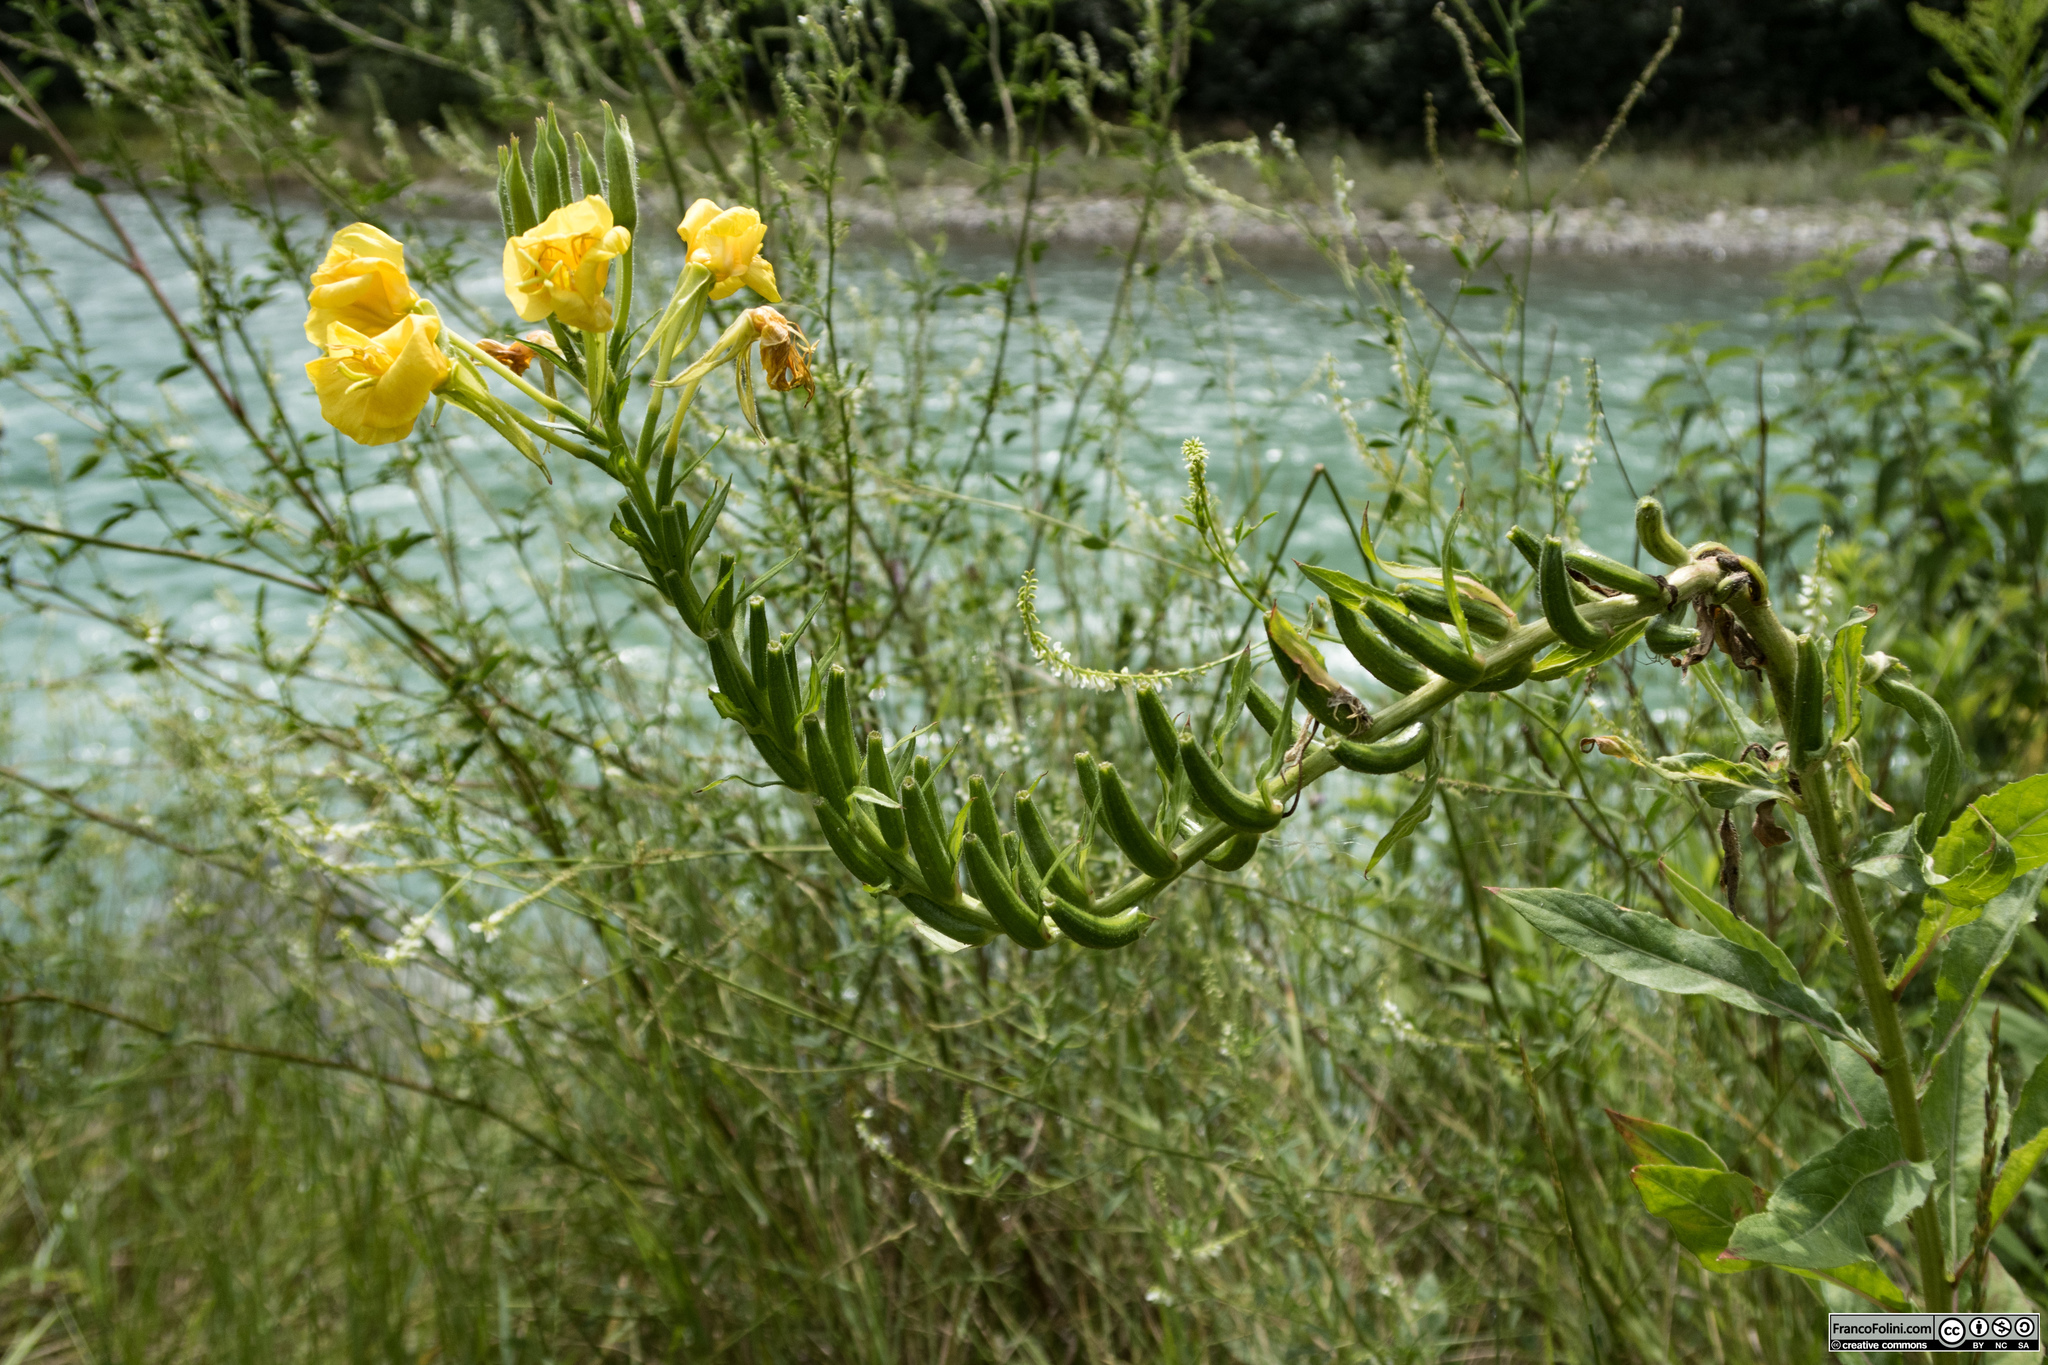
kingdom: Plantae
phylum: Tracheophyta
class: Magnoliopsida
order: Myrtales
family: Onagraceae
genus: Oenothera
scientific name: Oenothera biennis
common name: Common evening-primrose
